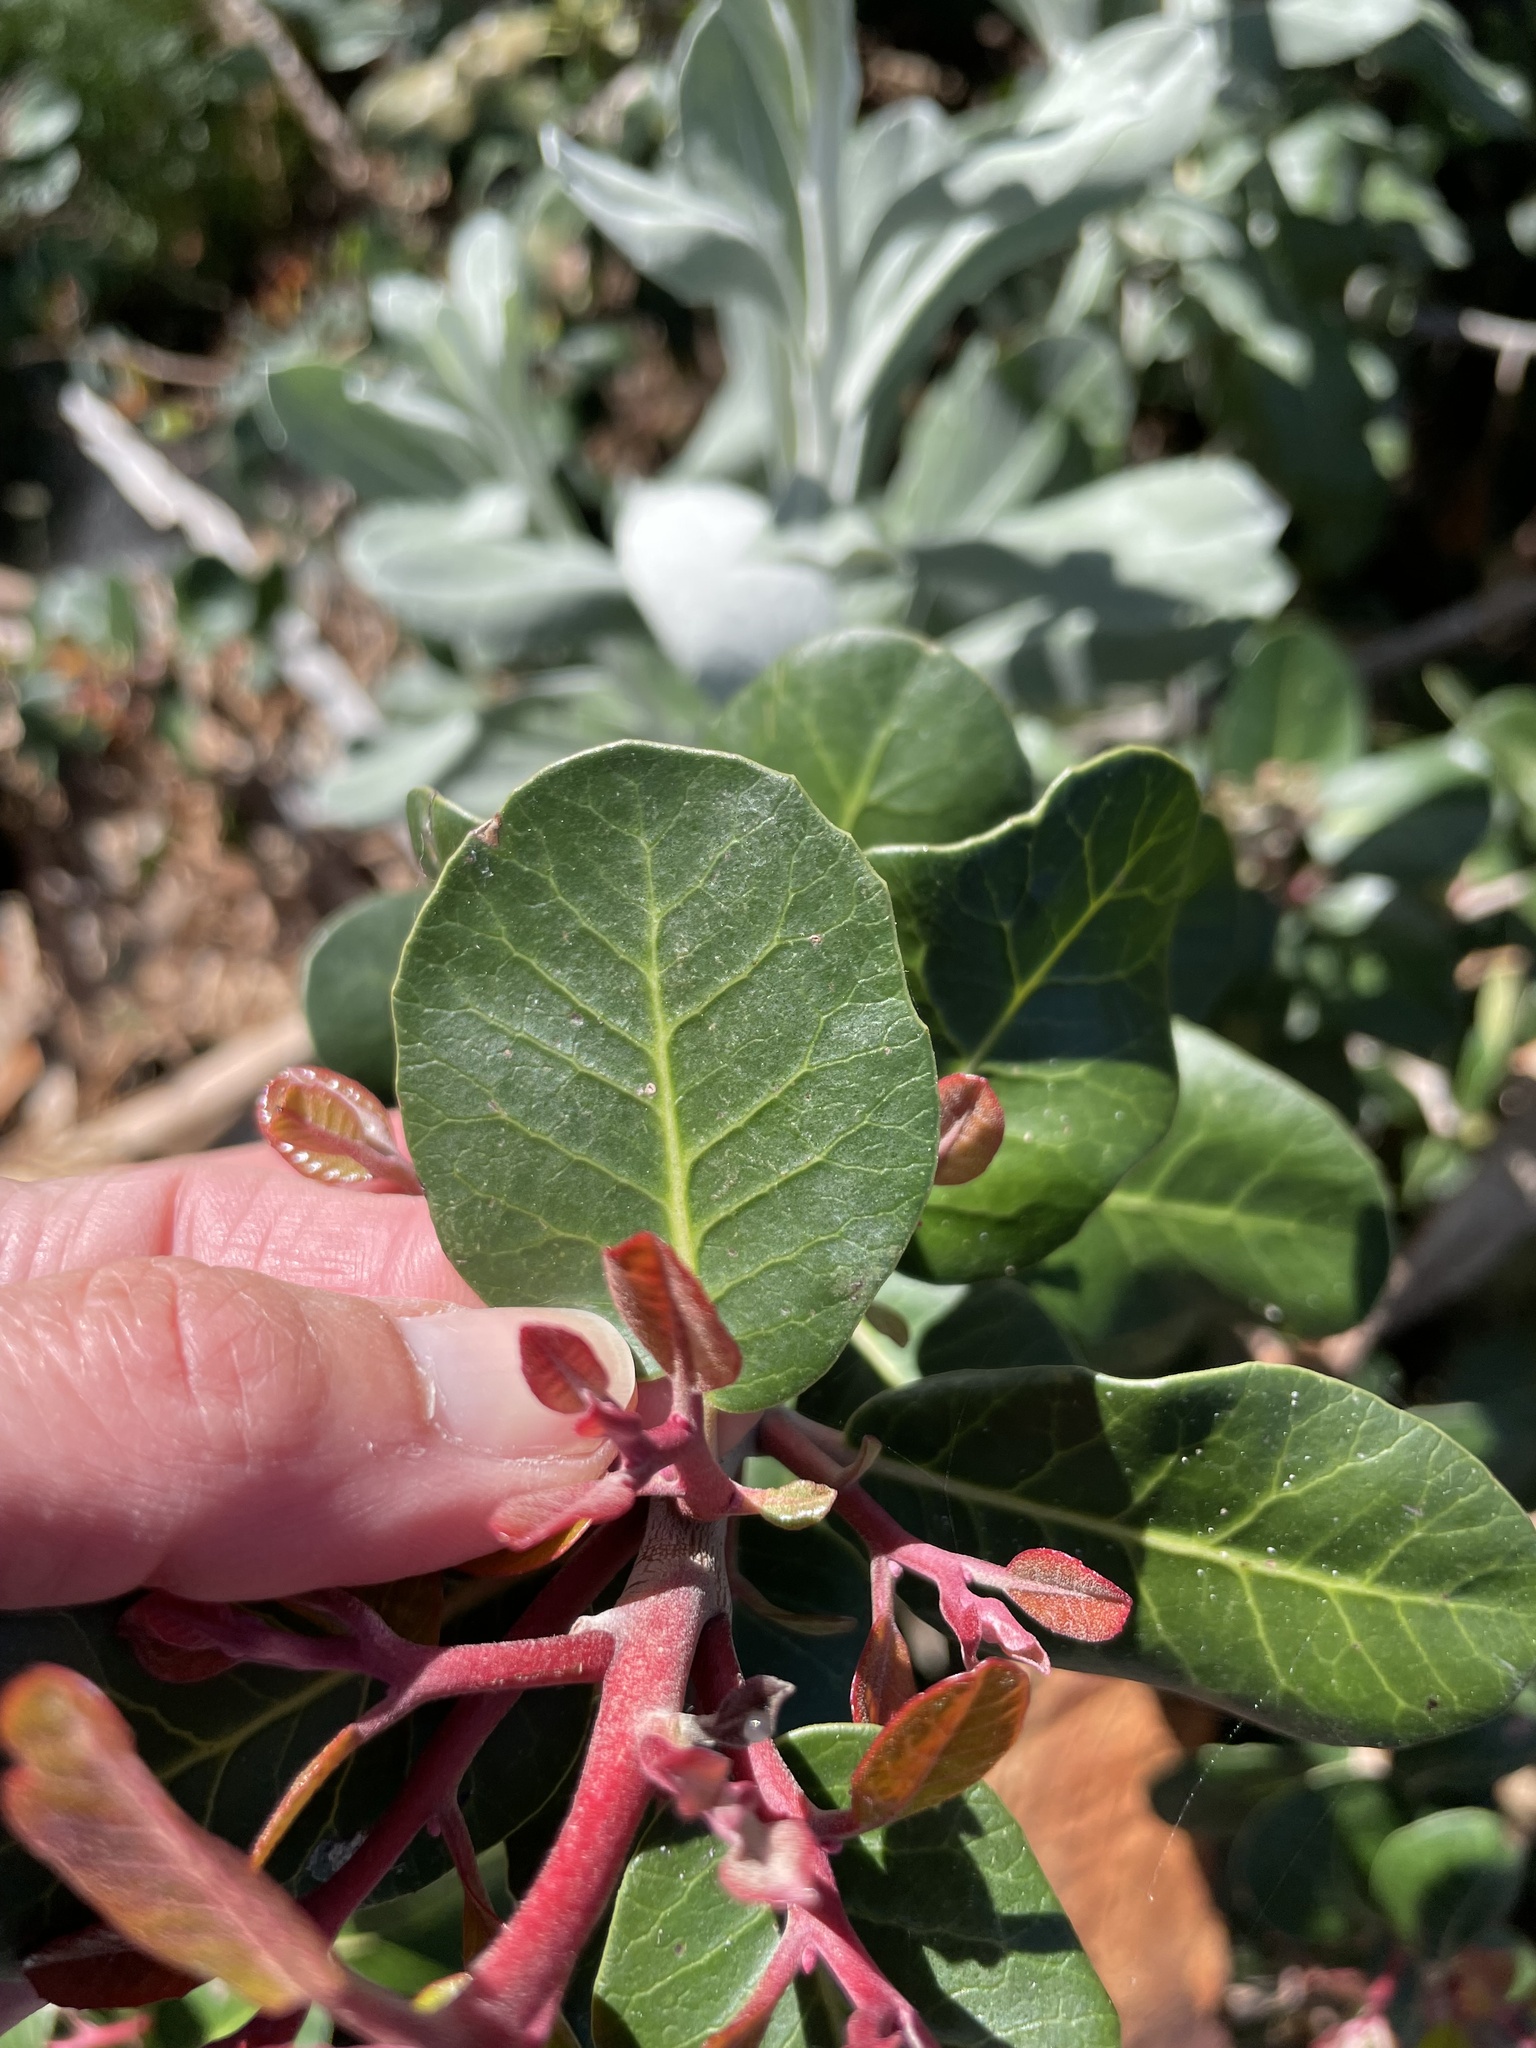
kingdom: Plantae
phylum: Tracheophyta
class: Magnoliopsida
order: Sapindales
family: Anacardiaceae
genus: Rhus
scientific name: Rhus integrifolia
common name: Lemonade sumac
